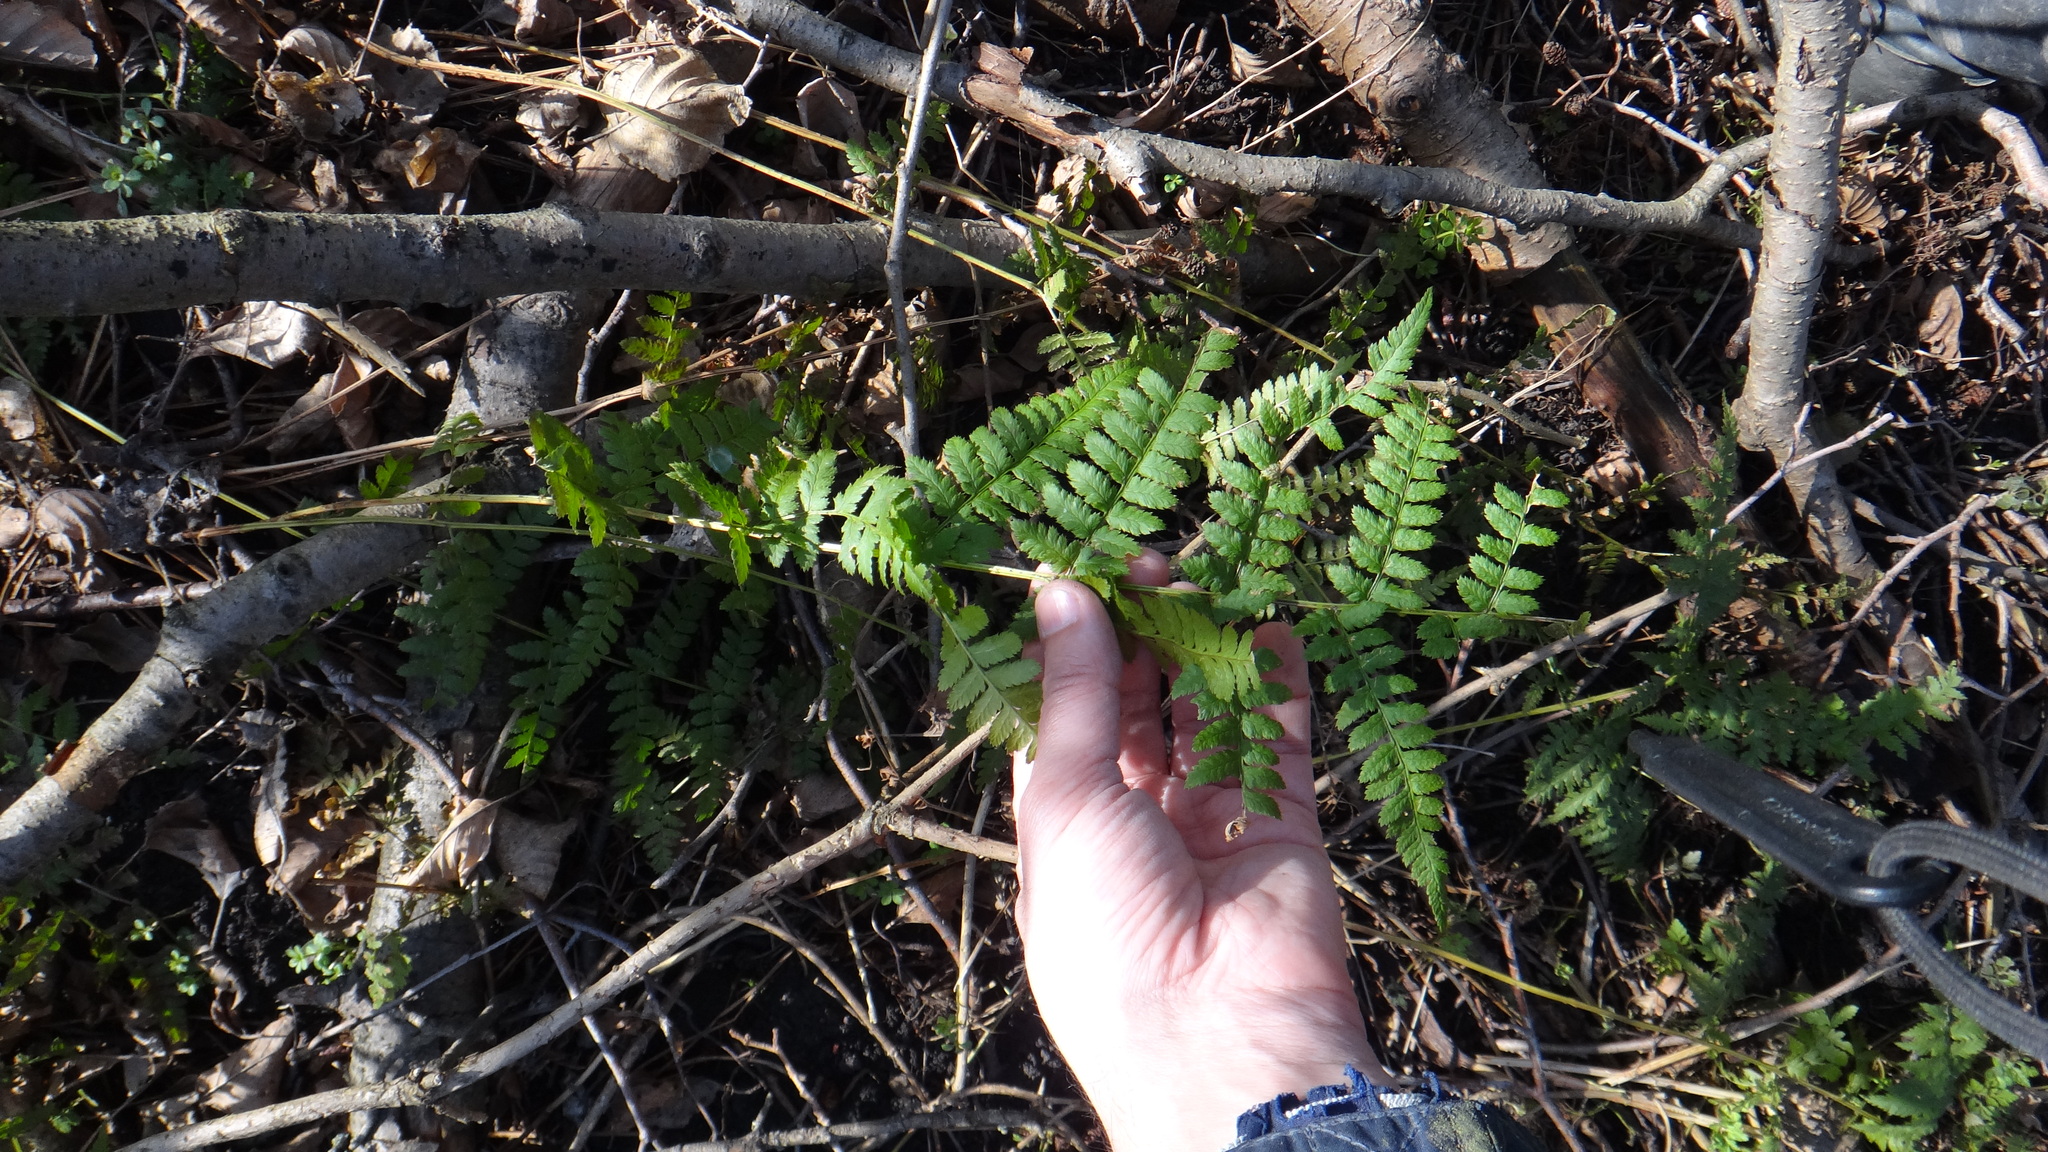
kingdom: Plantae
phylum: Tracheophyta
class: Polypodiopsida
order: Polypodiales
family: Dryopteridaceae
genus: Dryopteris
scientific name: Dryopteris carthusiana
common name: Narrow buckler-fern
